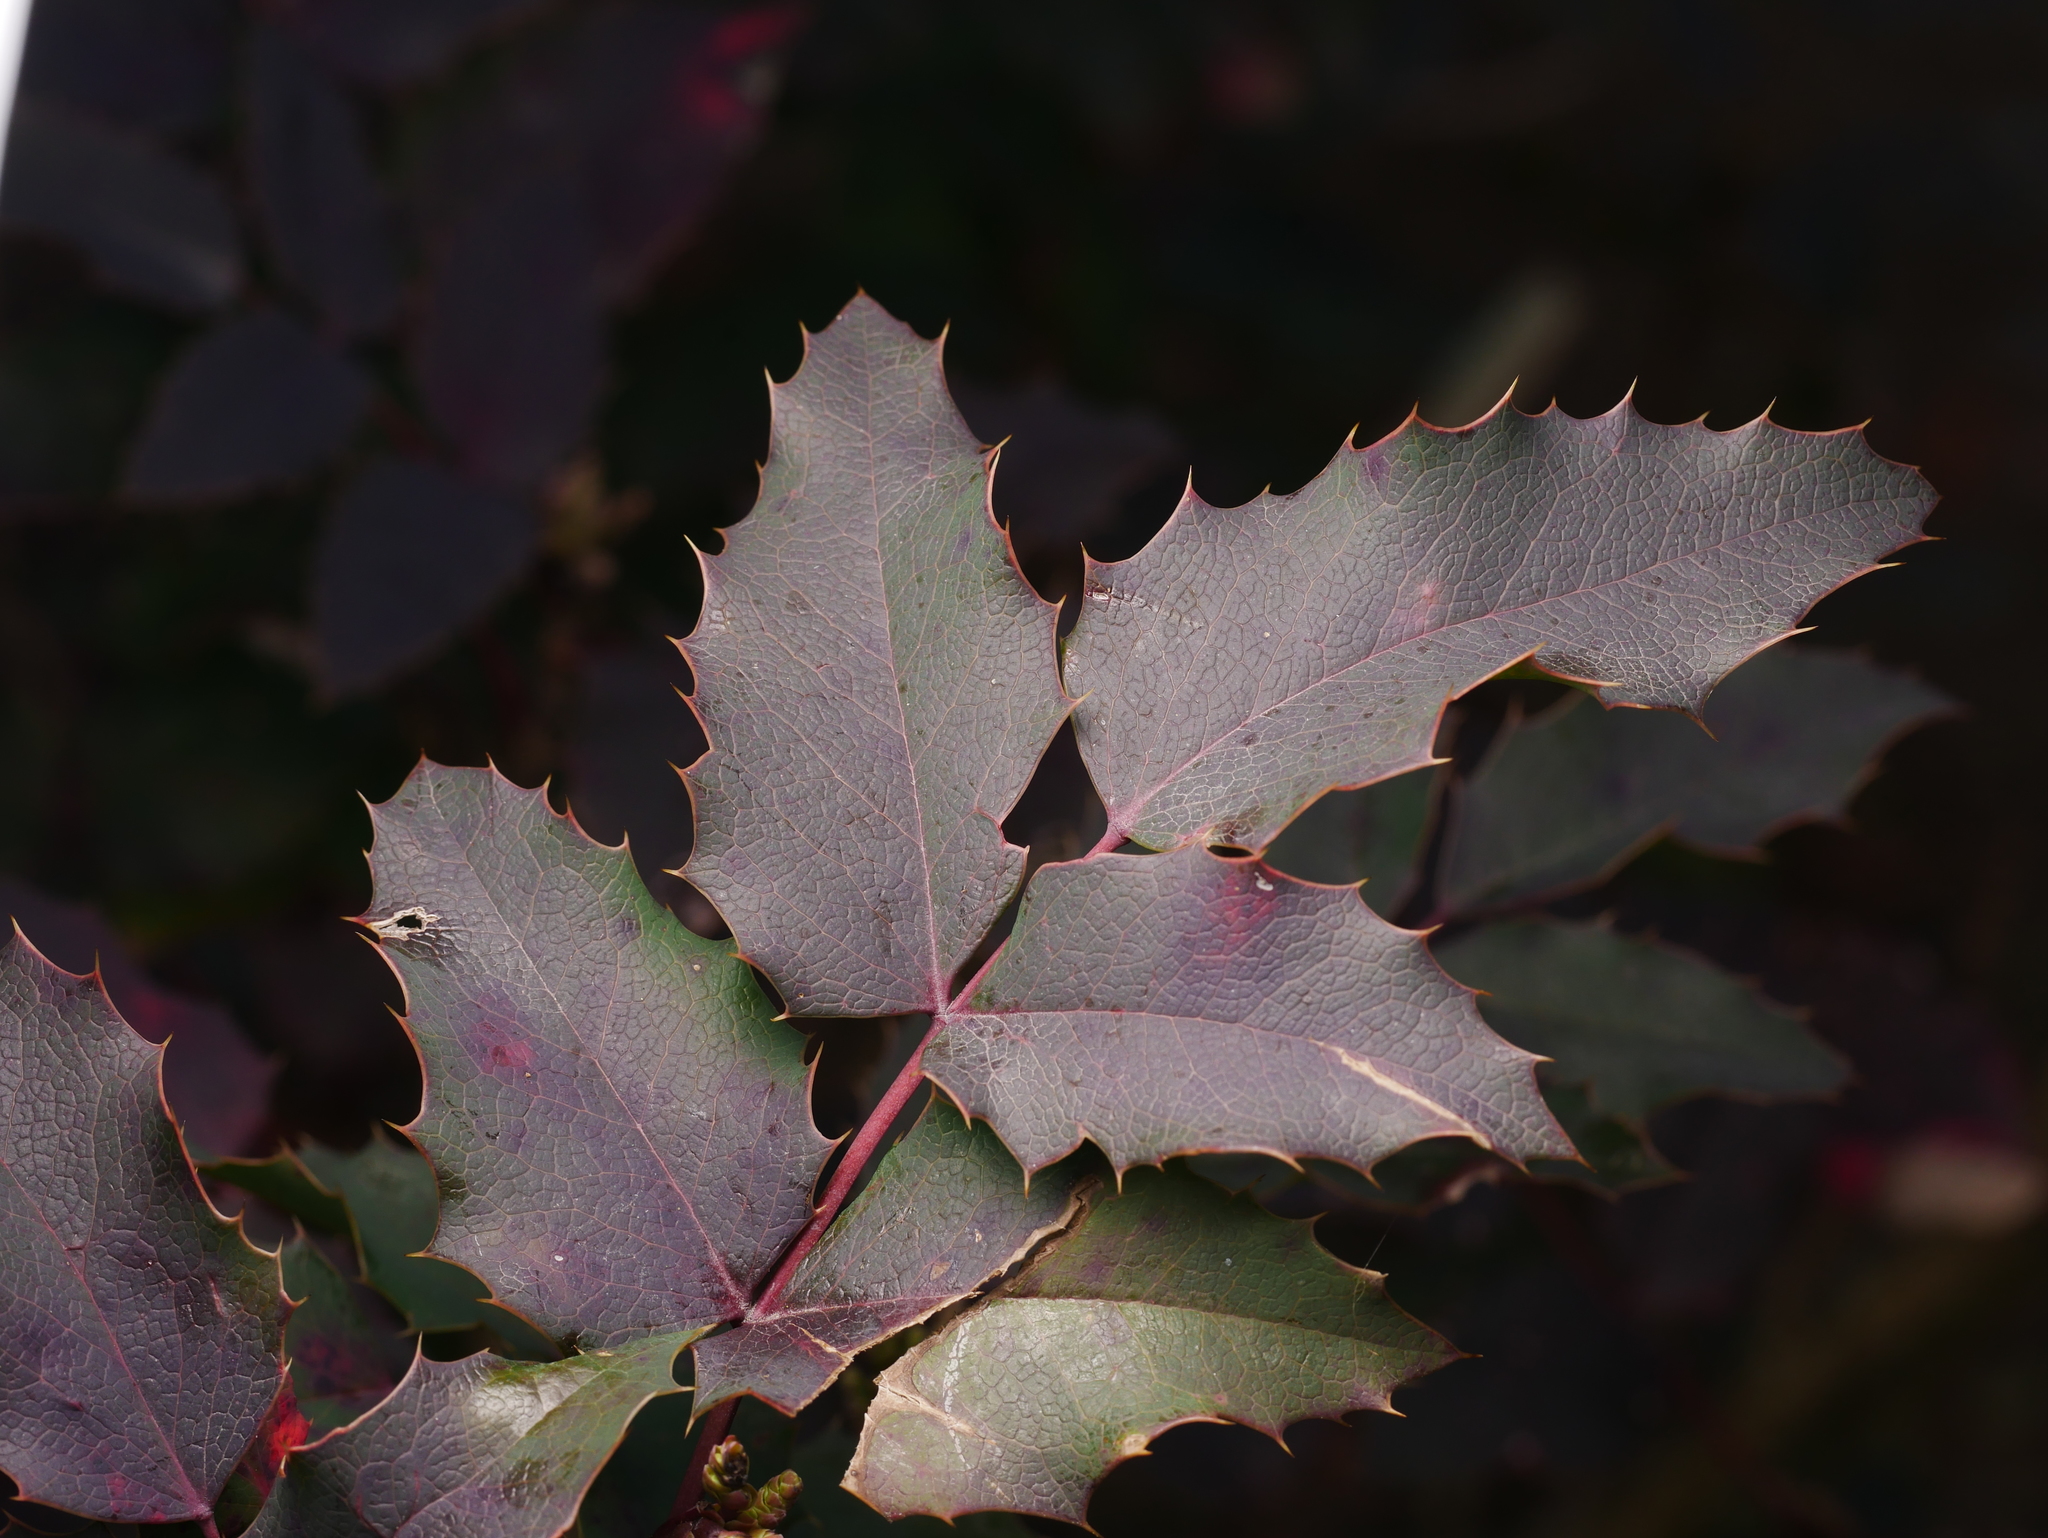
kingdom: Plantae
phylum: Tracheophyta
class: Magnoliopsida
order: Ranunculales
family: Berberidaceae
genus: Mahonia
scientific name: Mahonia aquifolium
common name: Oregon-grape
